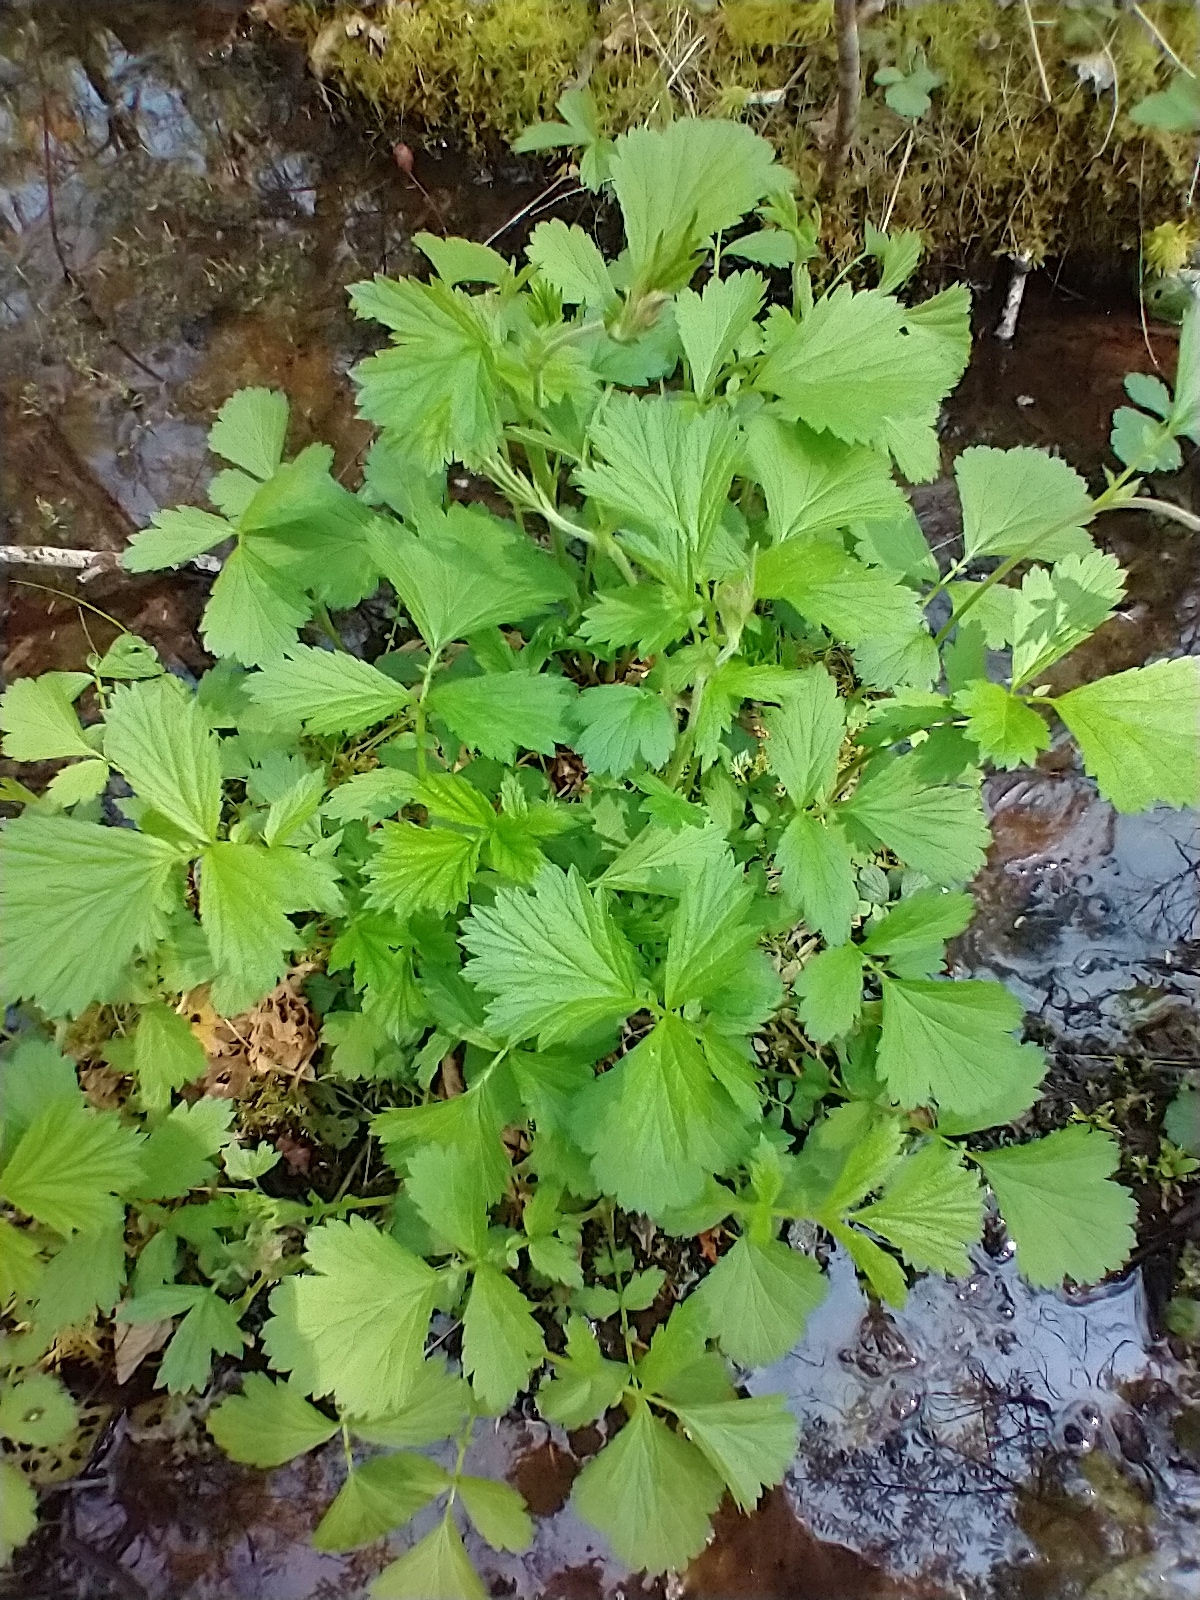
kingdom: Plantae
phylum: Tracheophyta
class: Magnoliopsida
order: Rosales
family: Rosaceae
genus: Geum
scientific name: Geum rivale
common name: Water avens
